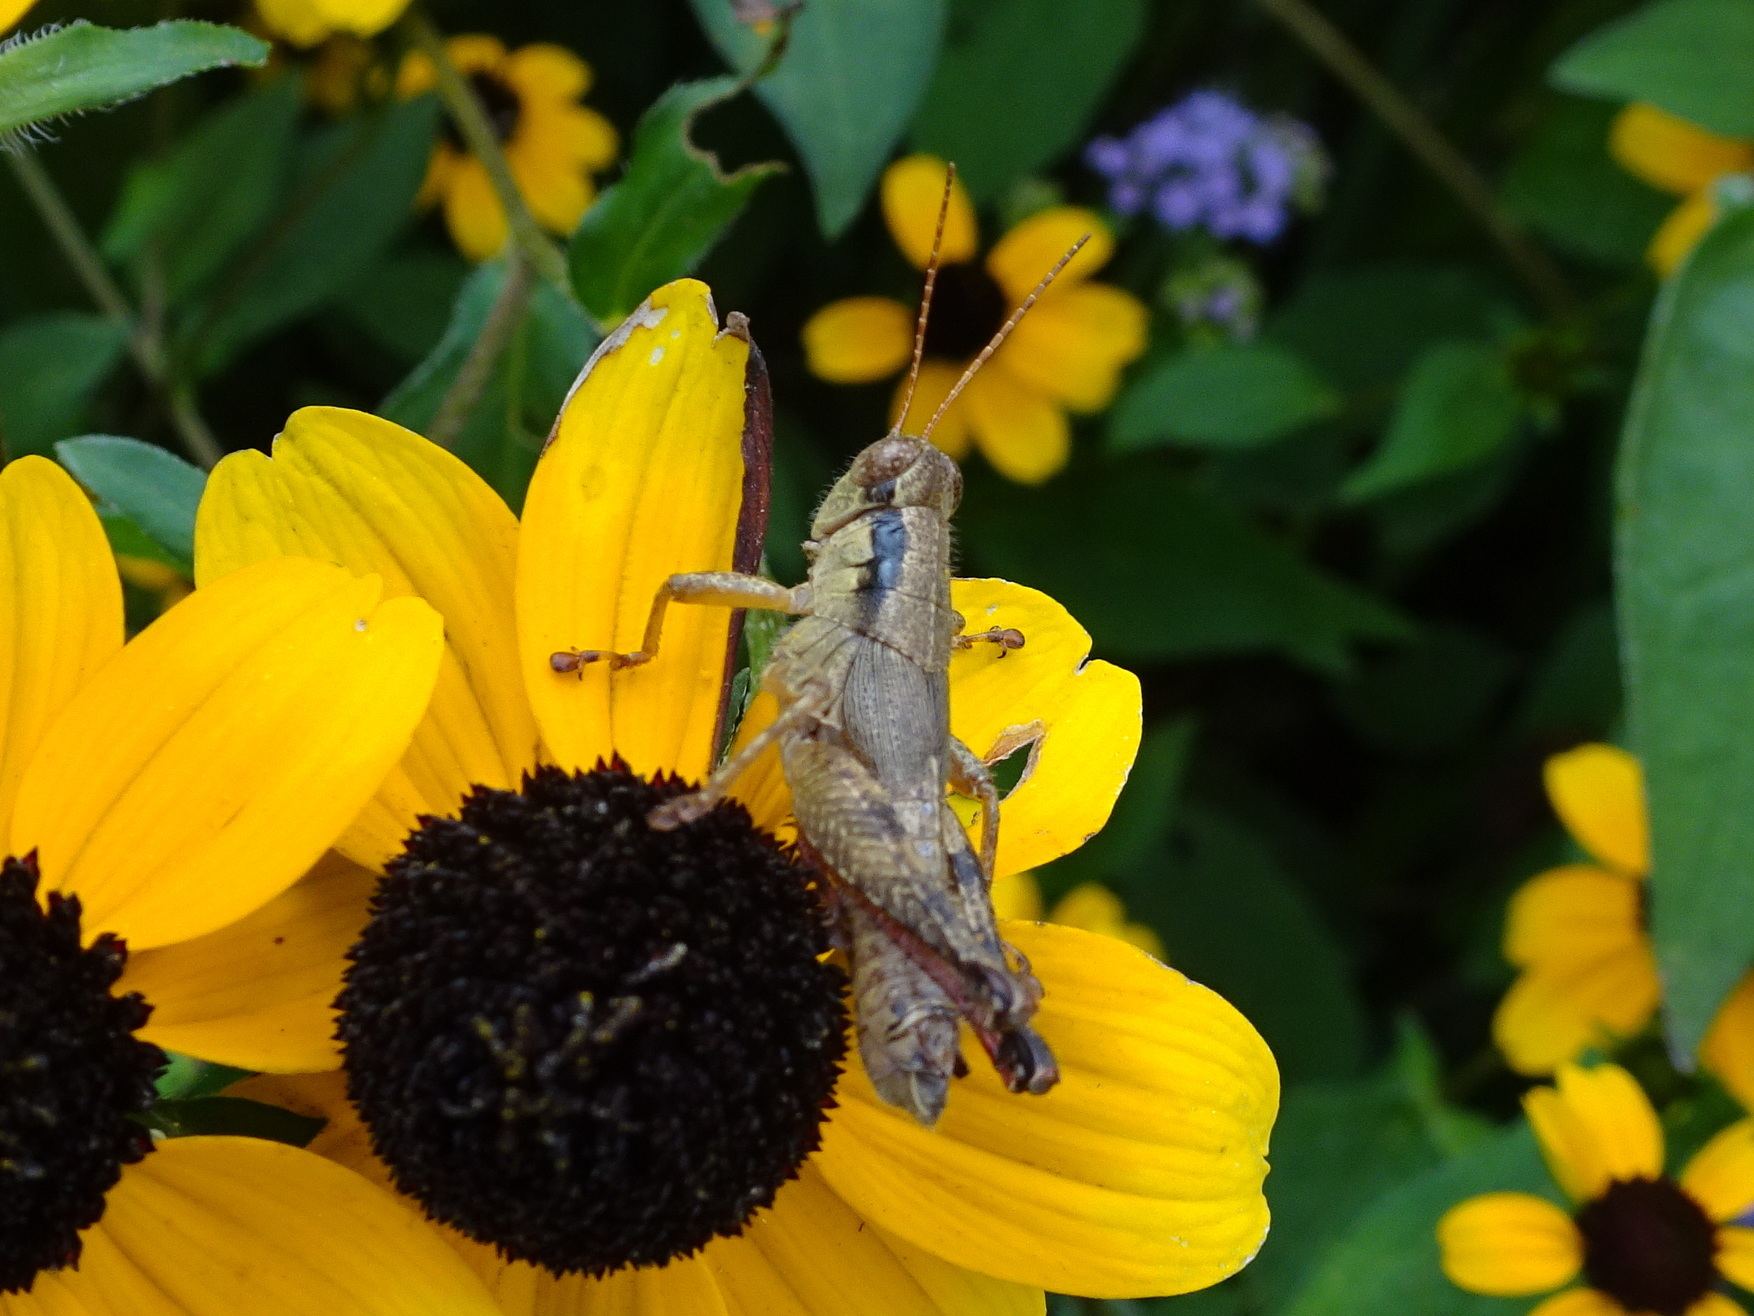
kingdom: Animalia
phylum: Arthropoda
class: Insecta
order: Orthoptera
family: Acrididae
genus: Melanoplus
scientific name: Melanoplus scudderi
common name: Scudder's short-winged locust
